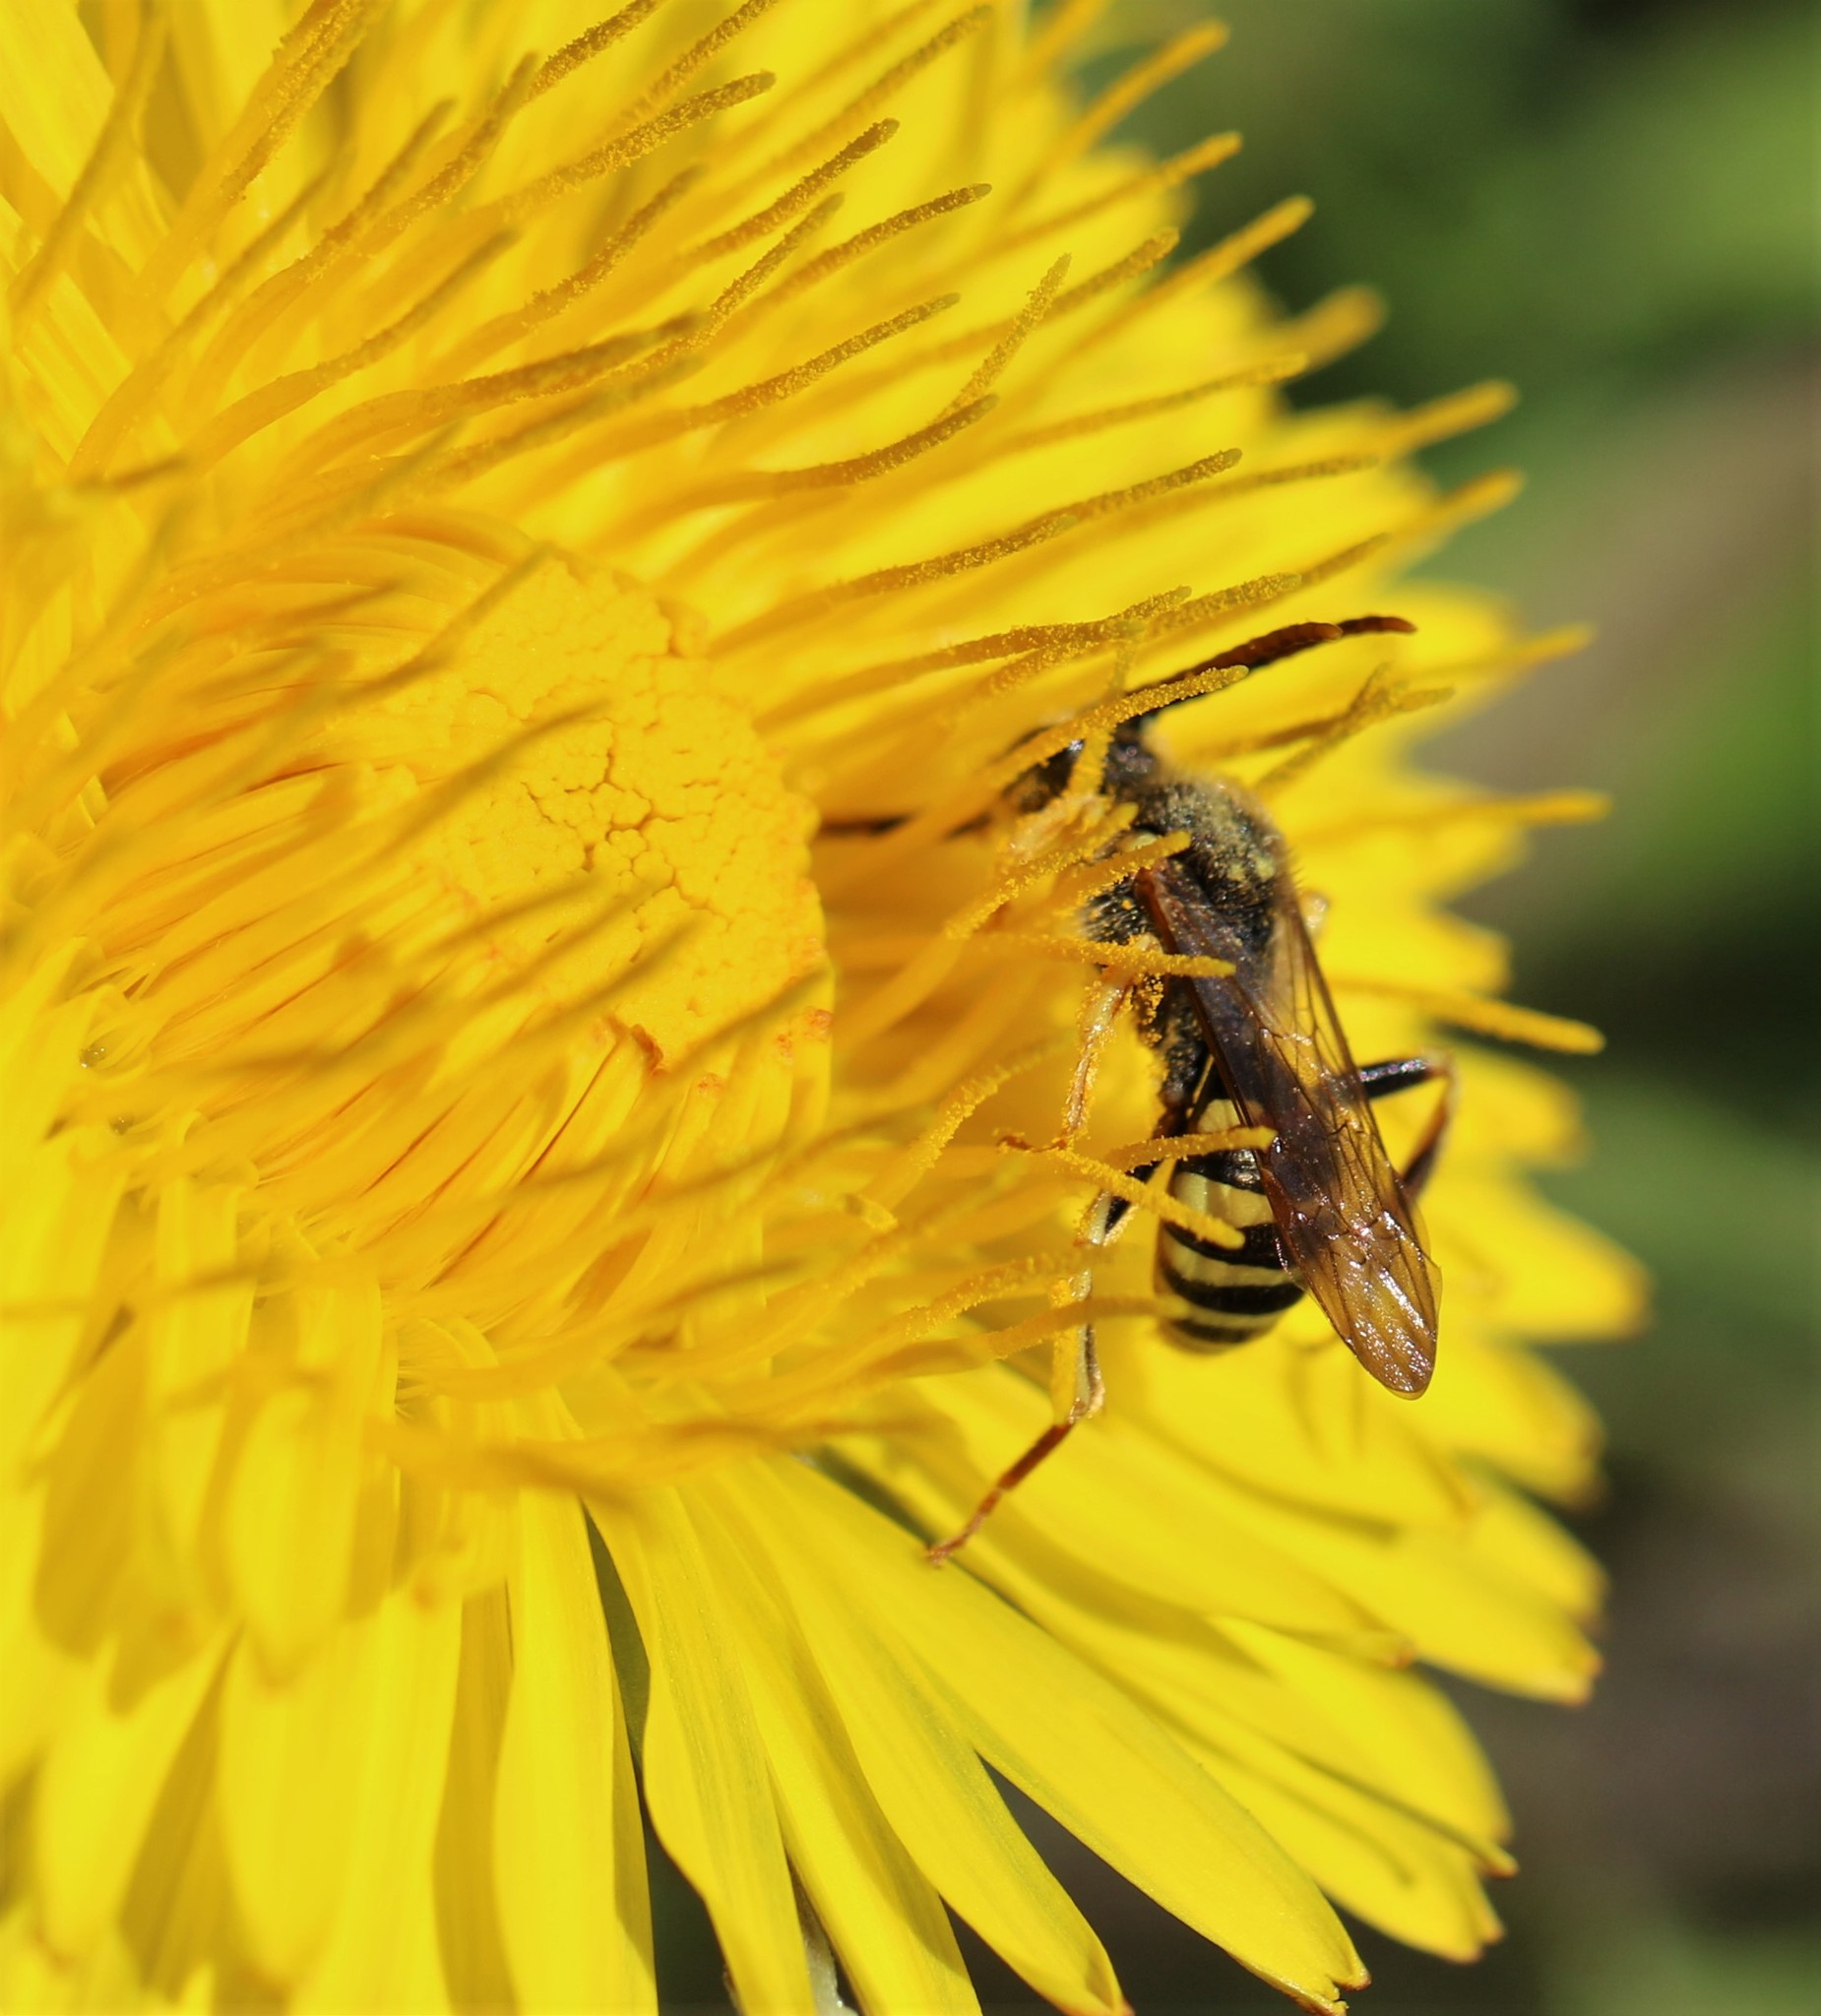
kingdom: Animalia
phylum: Arthropoda
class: Insecta
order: Hymenoptera
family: Apidae
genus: Nomada
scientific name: Nomada
